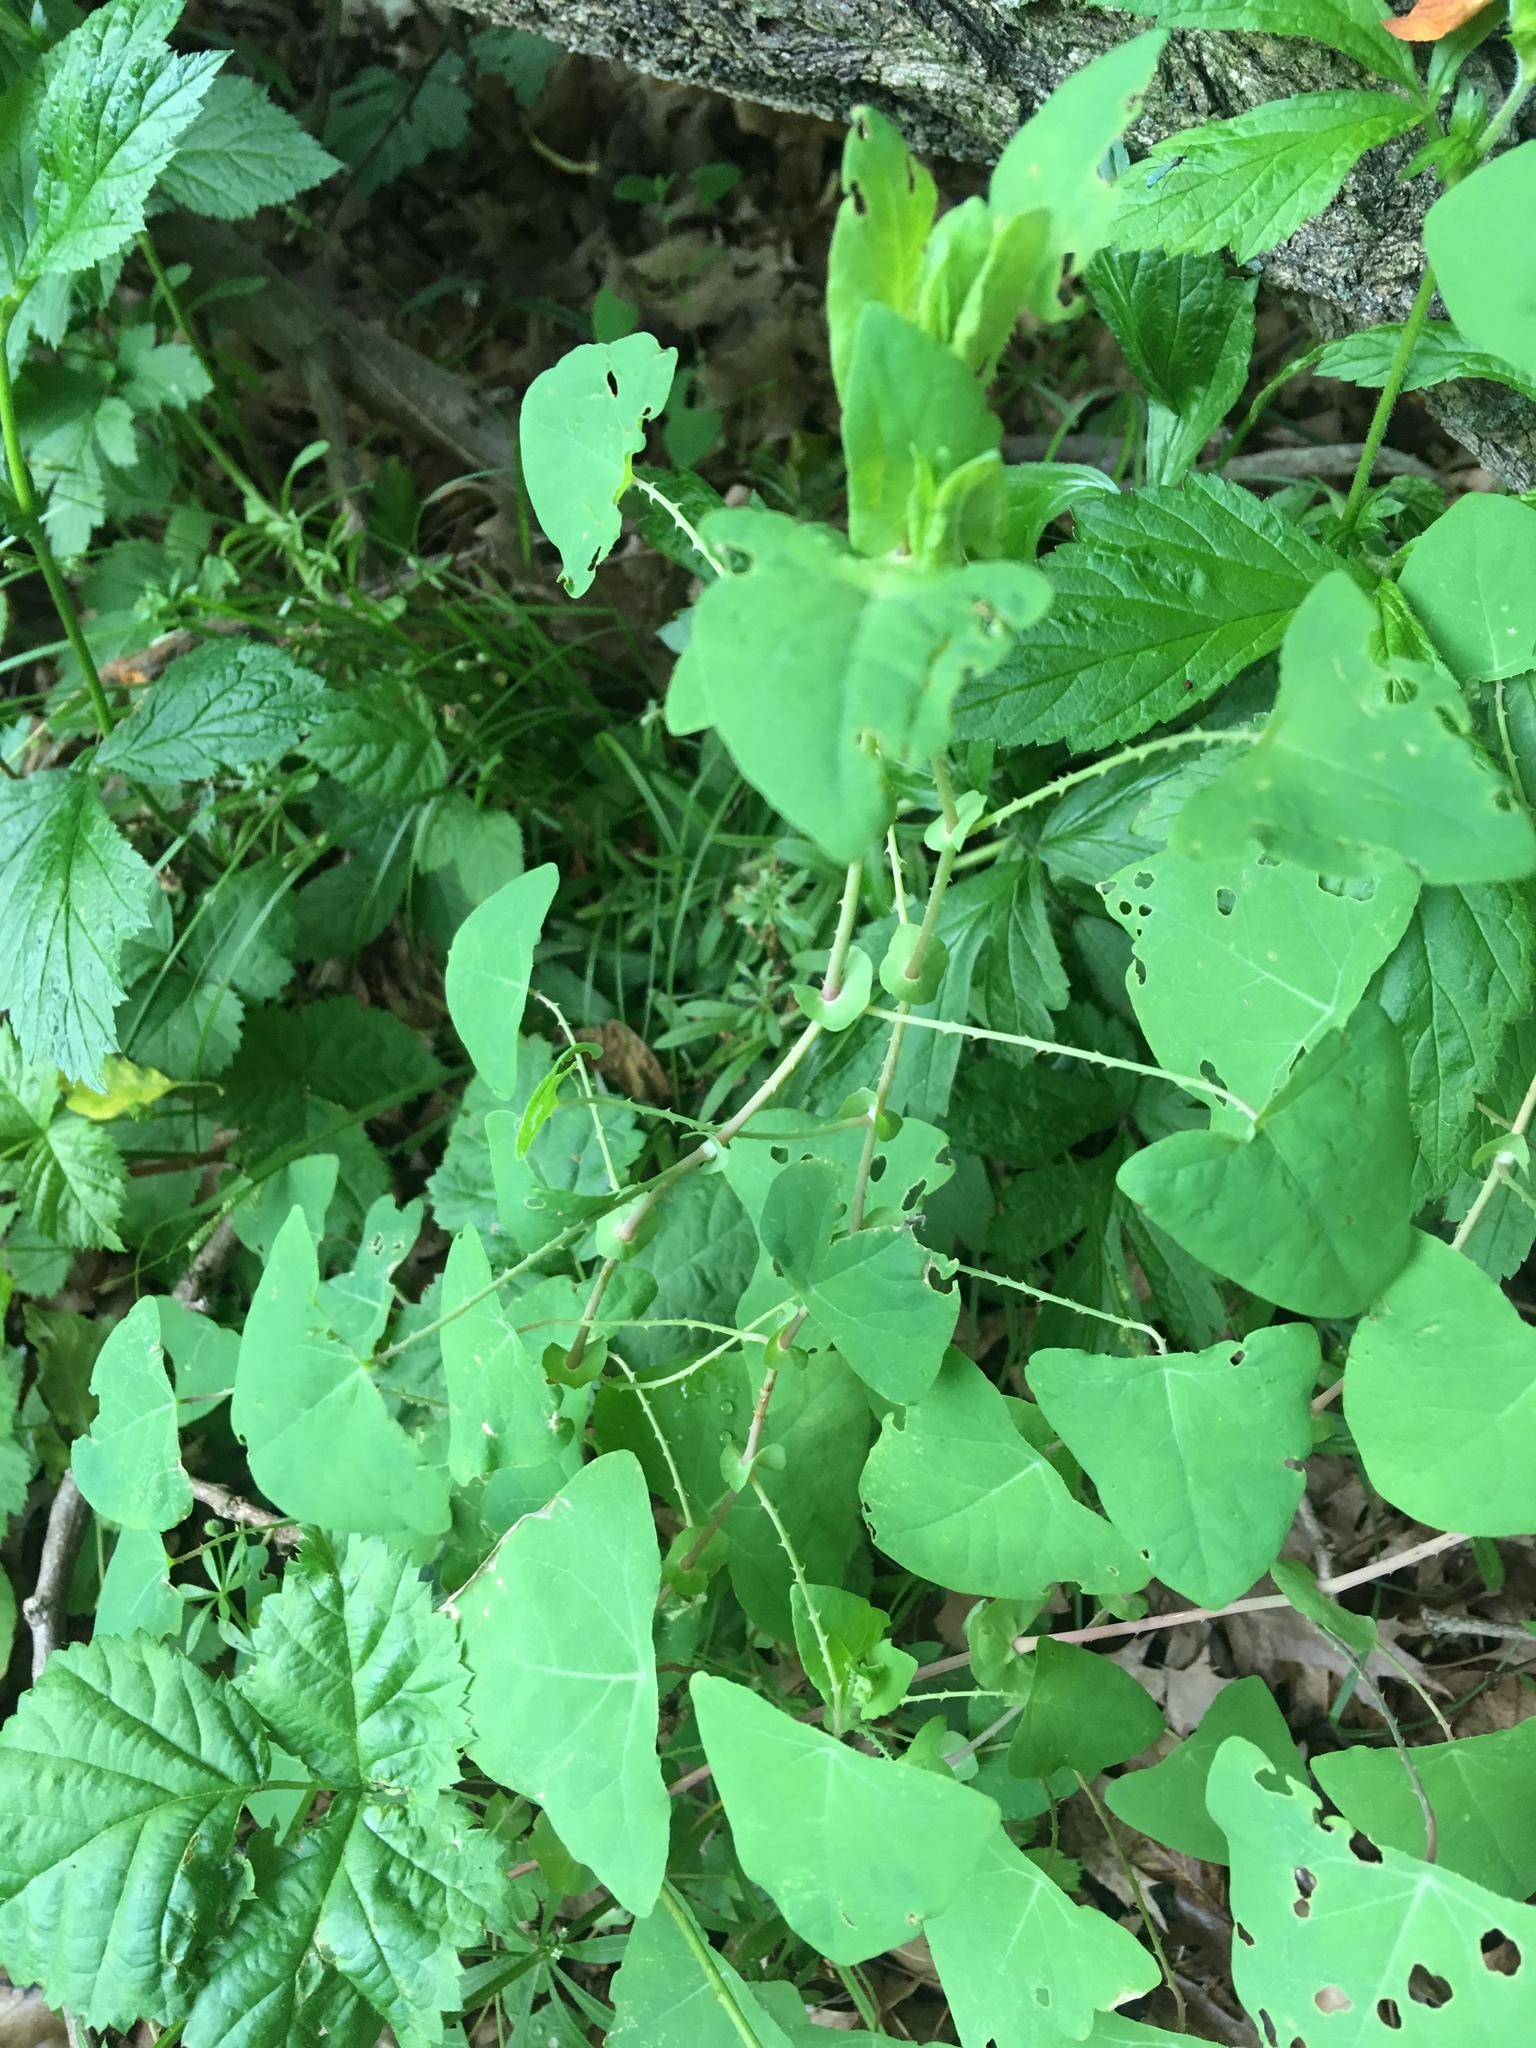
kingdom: Plantae
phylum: Tracheophyta
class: Magnoliopsida
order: Caryophyllales
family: Polygonaceae
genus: Persicaria
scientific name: Persicaria perfoliata
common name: Asiatic tearthumb
